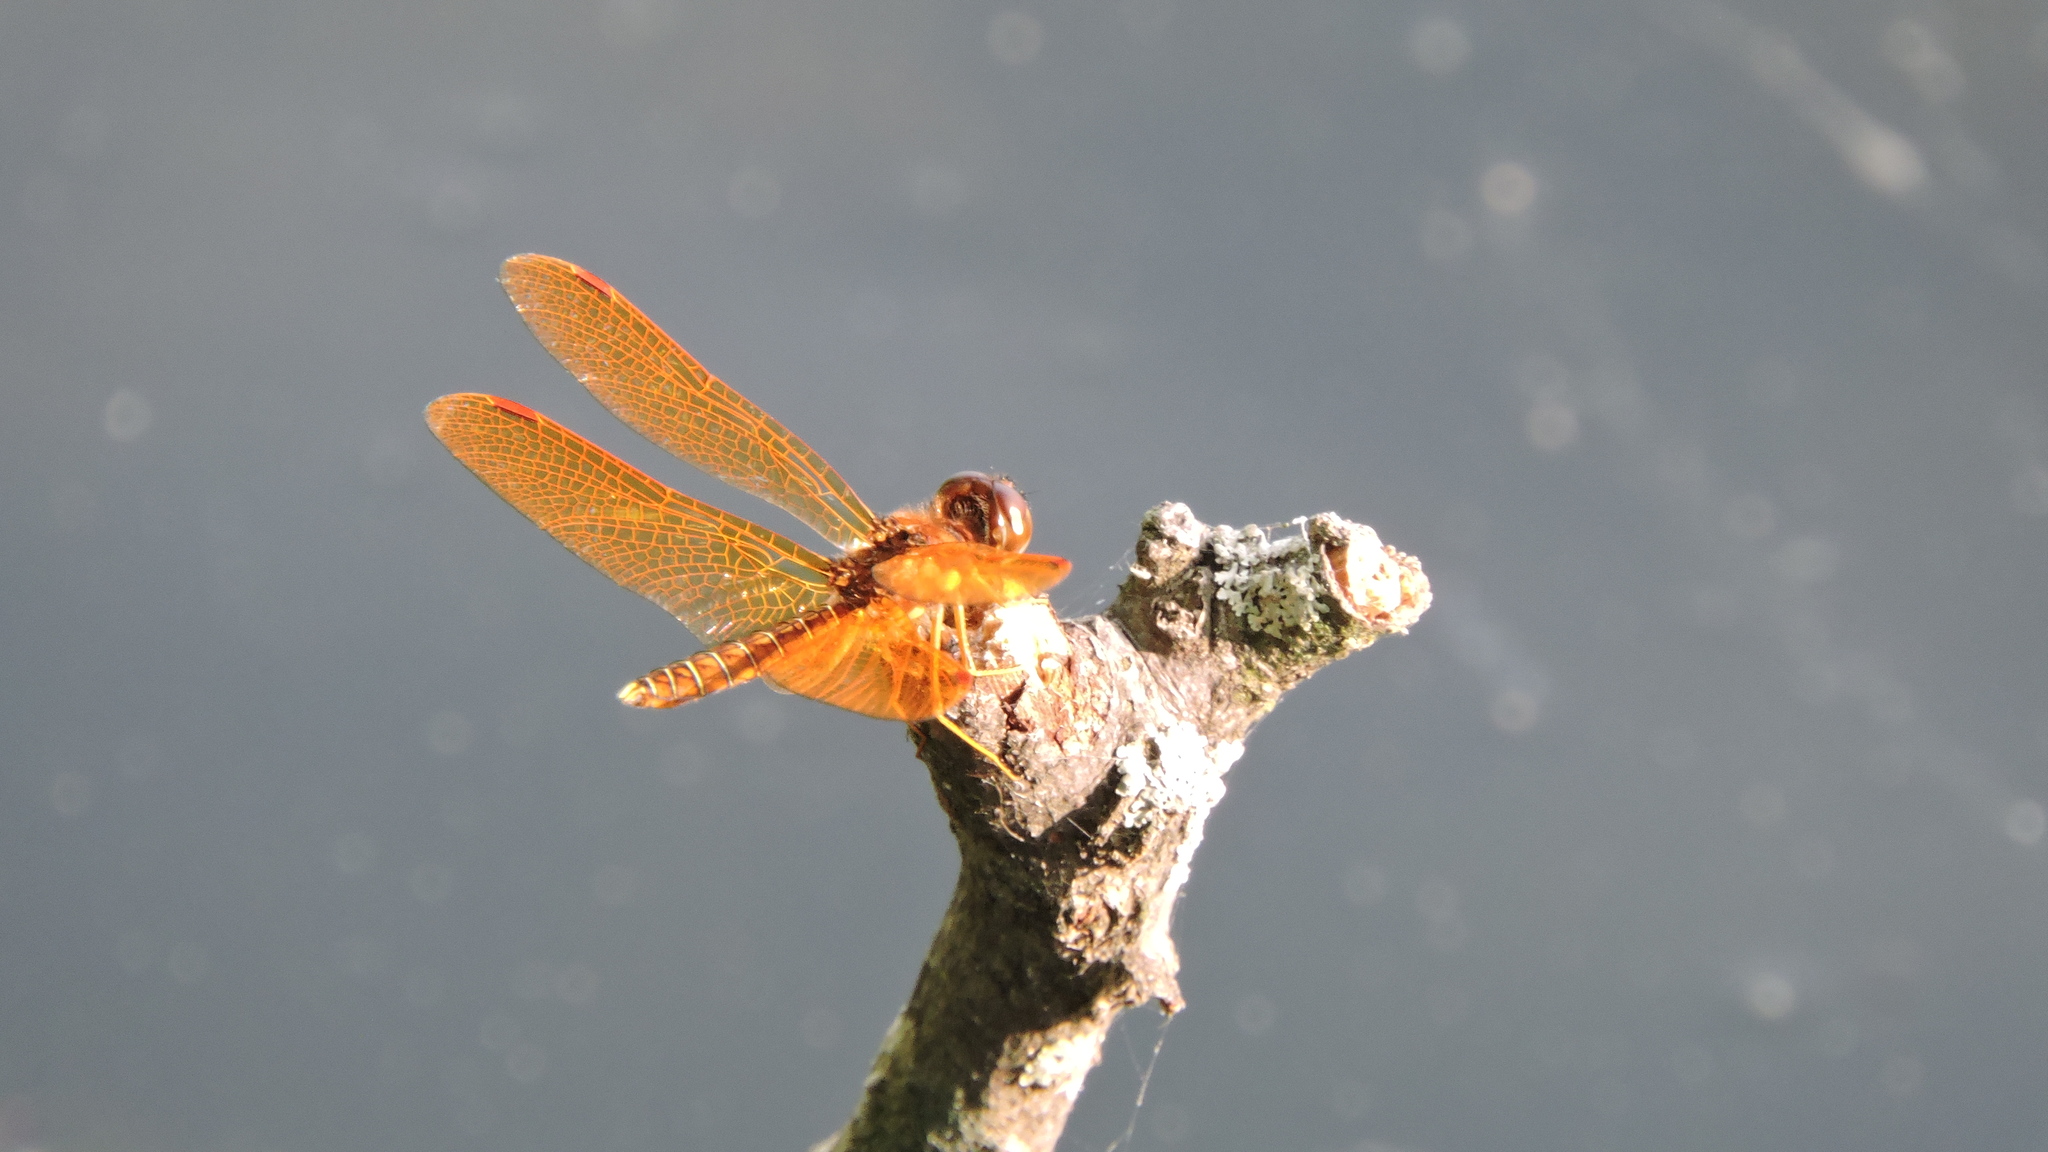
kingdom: Animalia
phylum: Arthropoda
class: Insecta
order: Odonata
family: Libellulidae
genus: Perithemis
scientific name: Perithemis tenera
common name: Eastern amberwing
